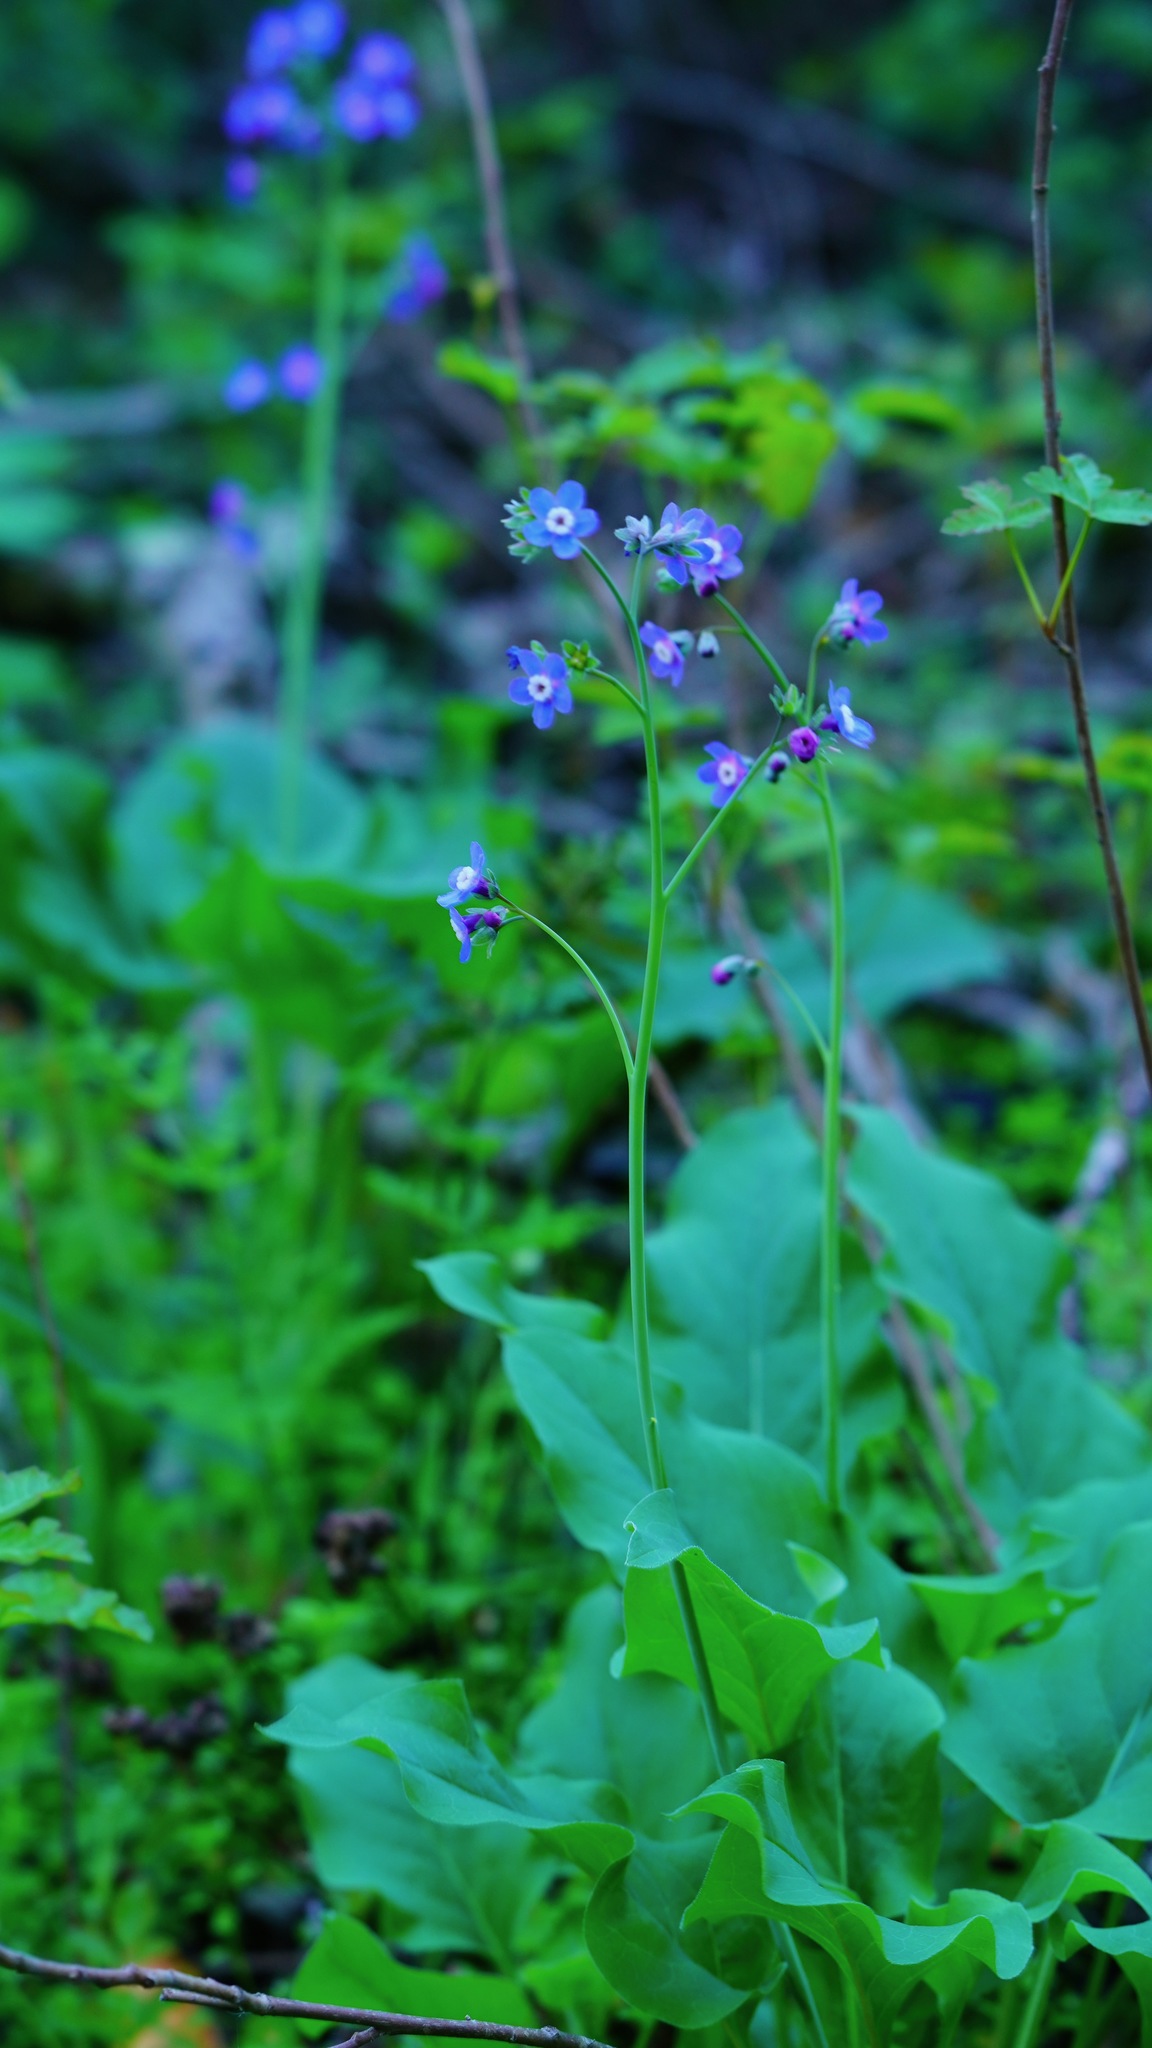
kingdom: Plantae
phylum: Tracheophyta
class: Magnoliopsida
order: Boraginales
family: Boraginaceae
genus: Adelinia
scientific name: Adelinia grande
